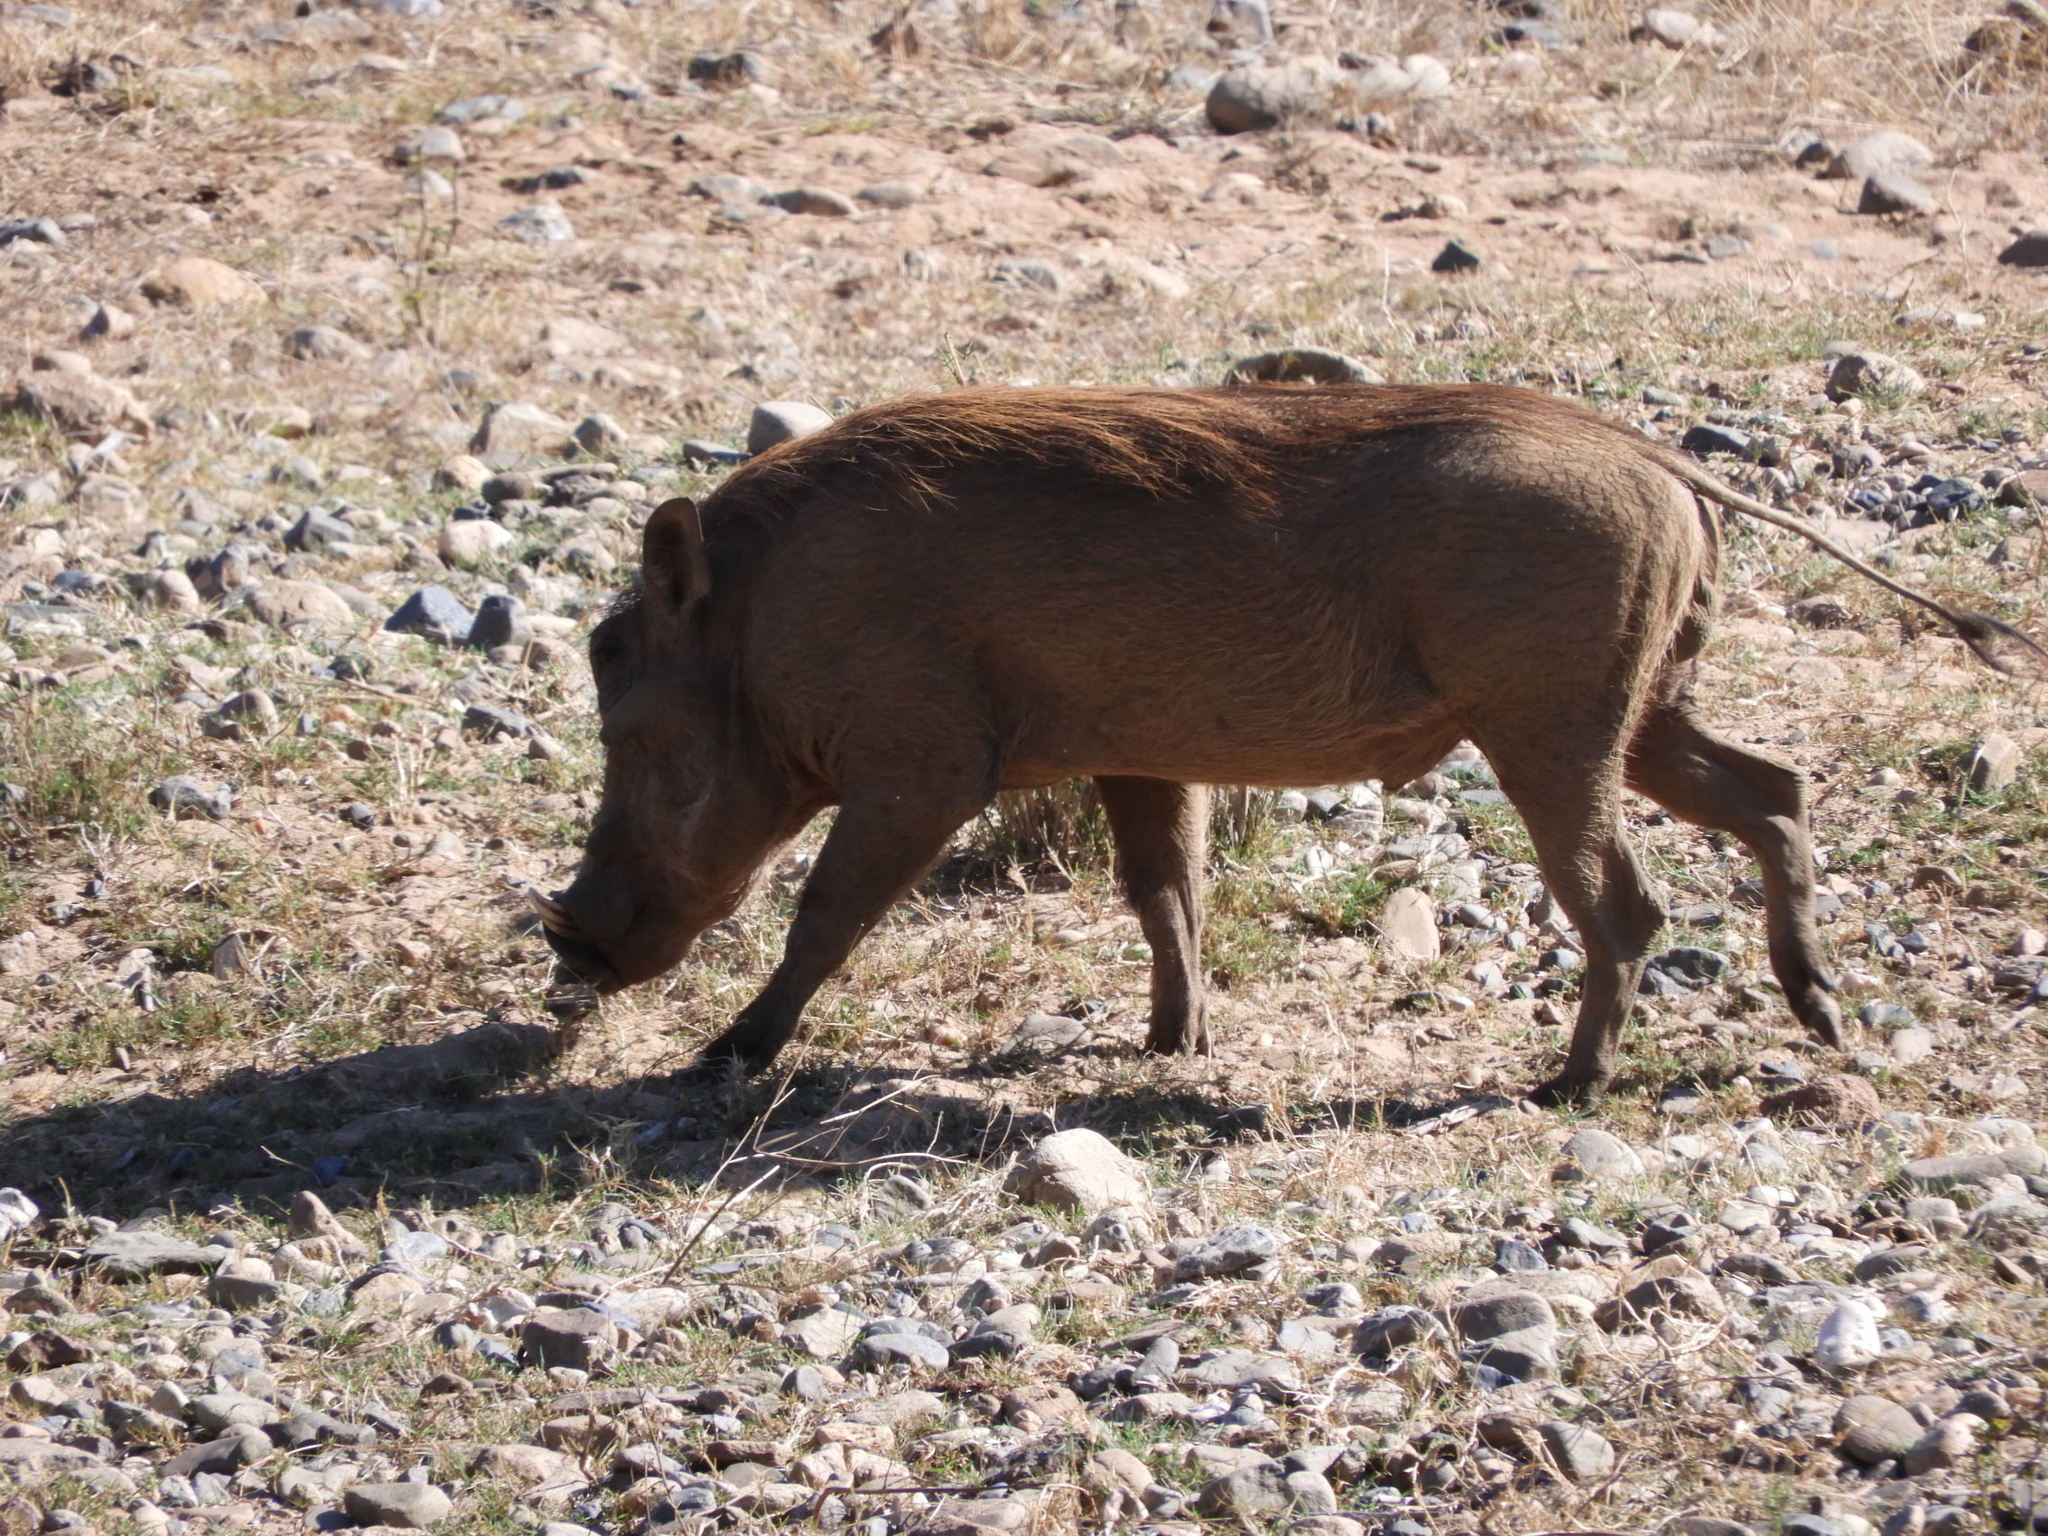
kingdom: Animalia
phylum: Chordata
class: Mammalia
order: Artiodactyla
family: Suidae
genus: Phacochoerus
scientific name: Phacochoerus africanus
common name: Common warthog
